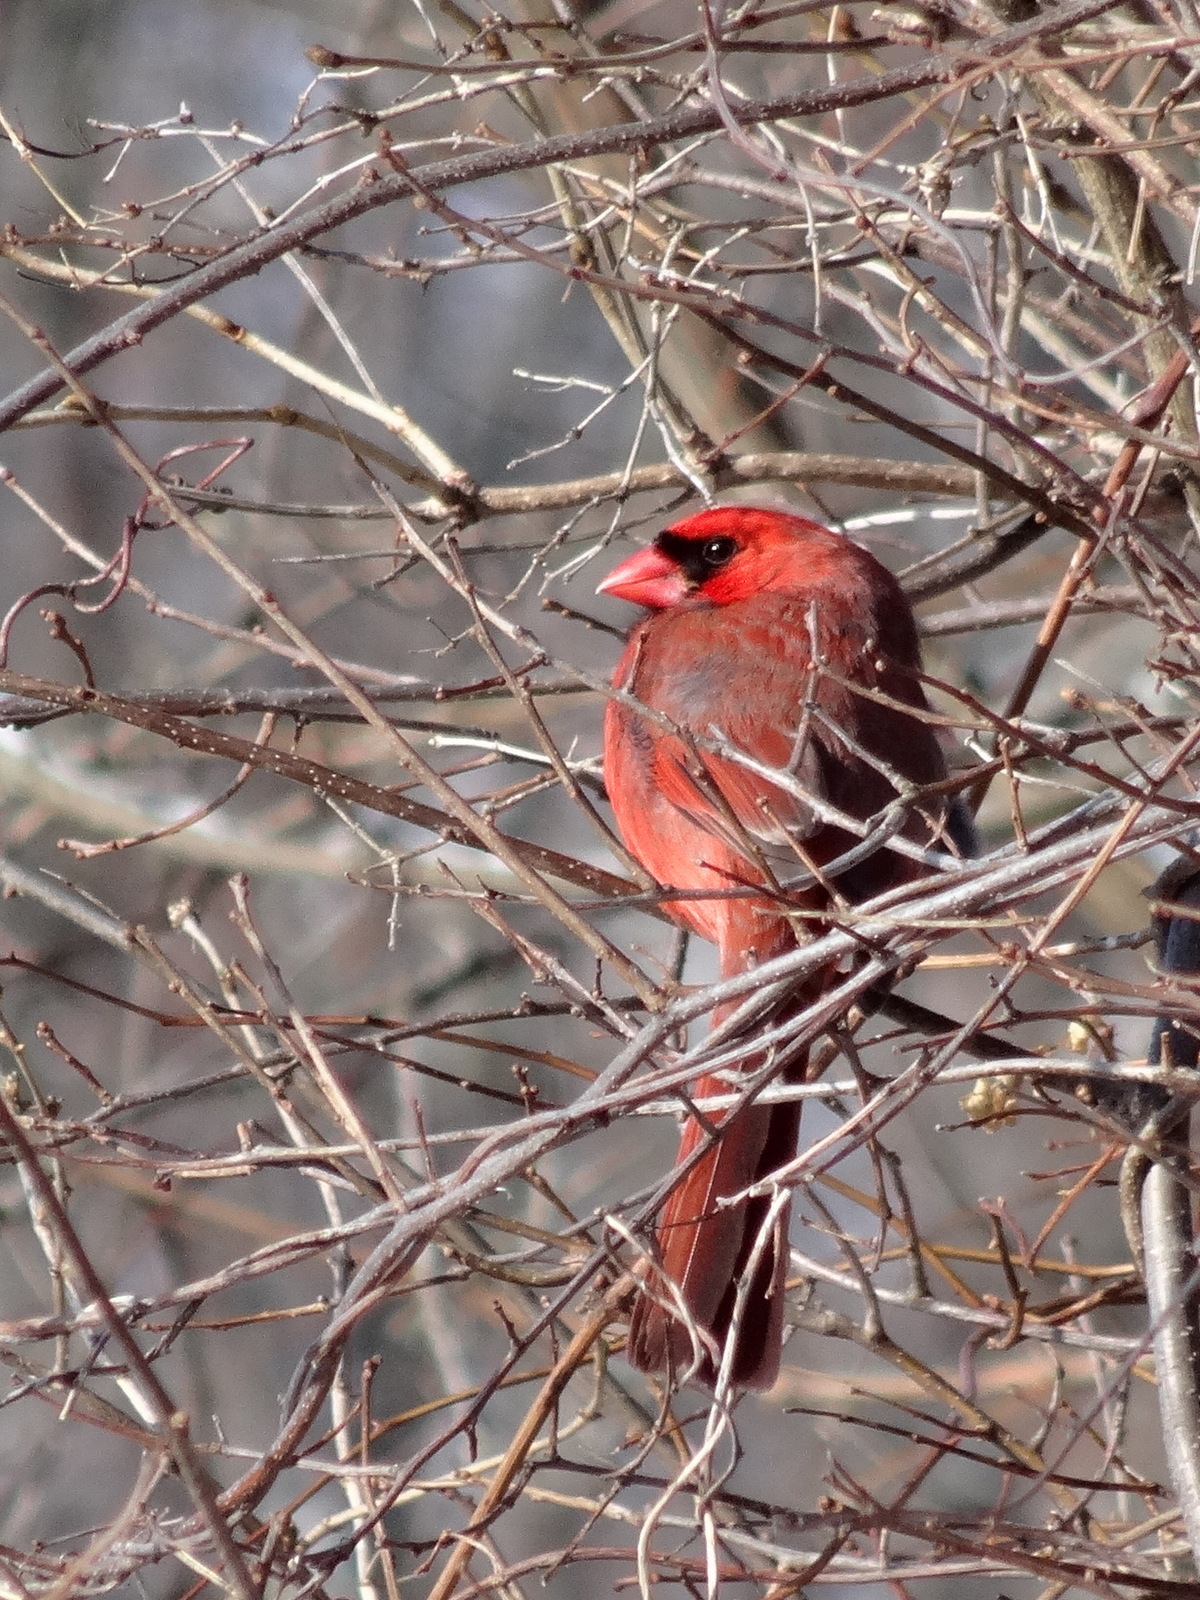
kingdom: Animalia
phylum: Chordata
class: Aves
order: Passeriformes
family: Cardinalidae
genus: Cardinalis
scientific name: Cardinalis cardinalis
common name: Northern cardinal
